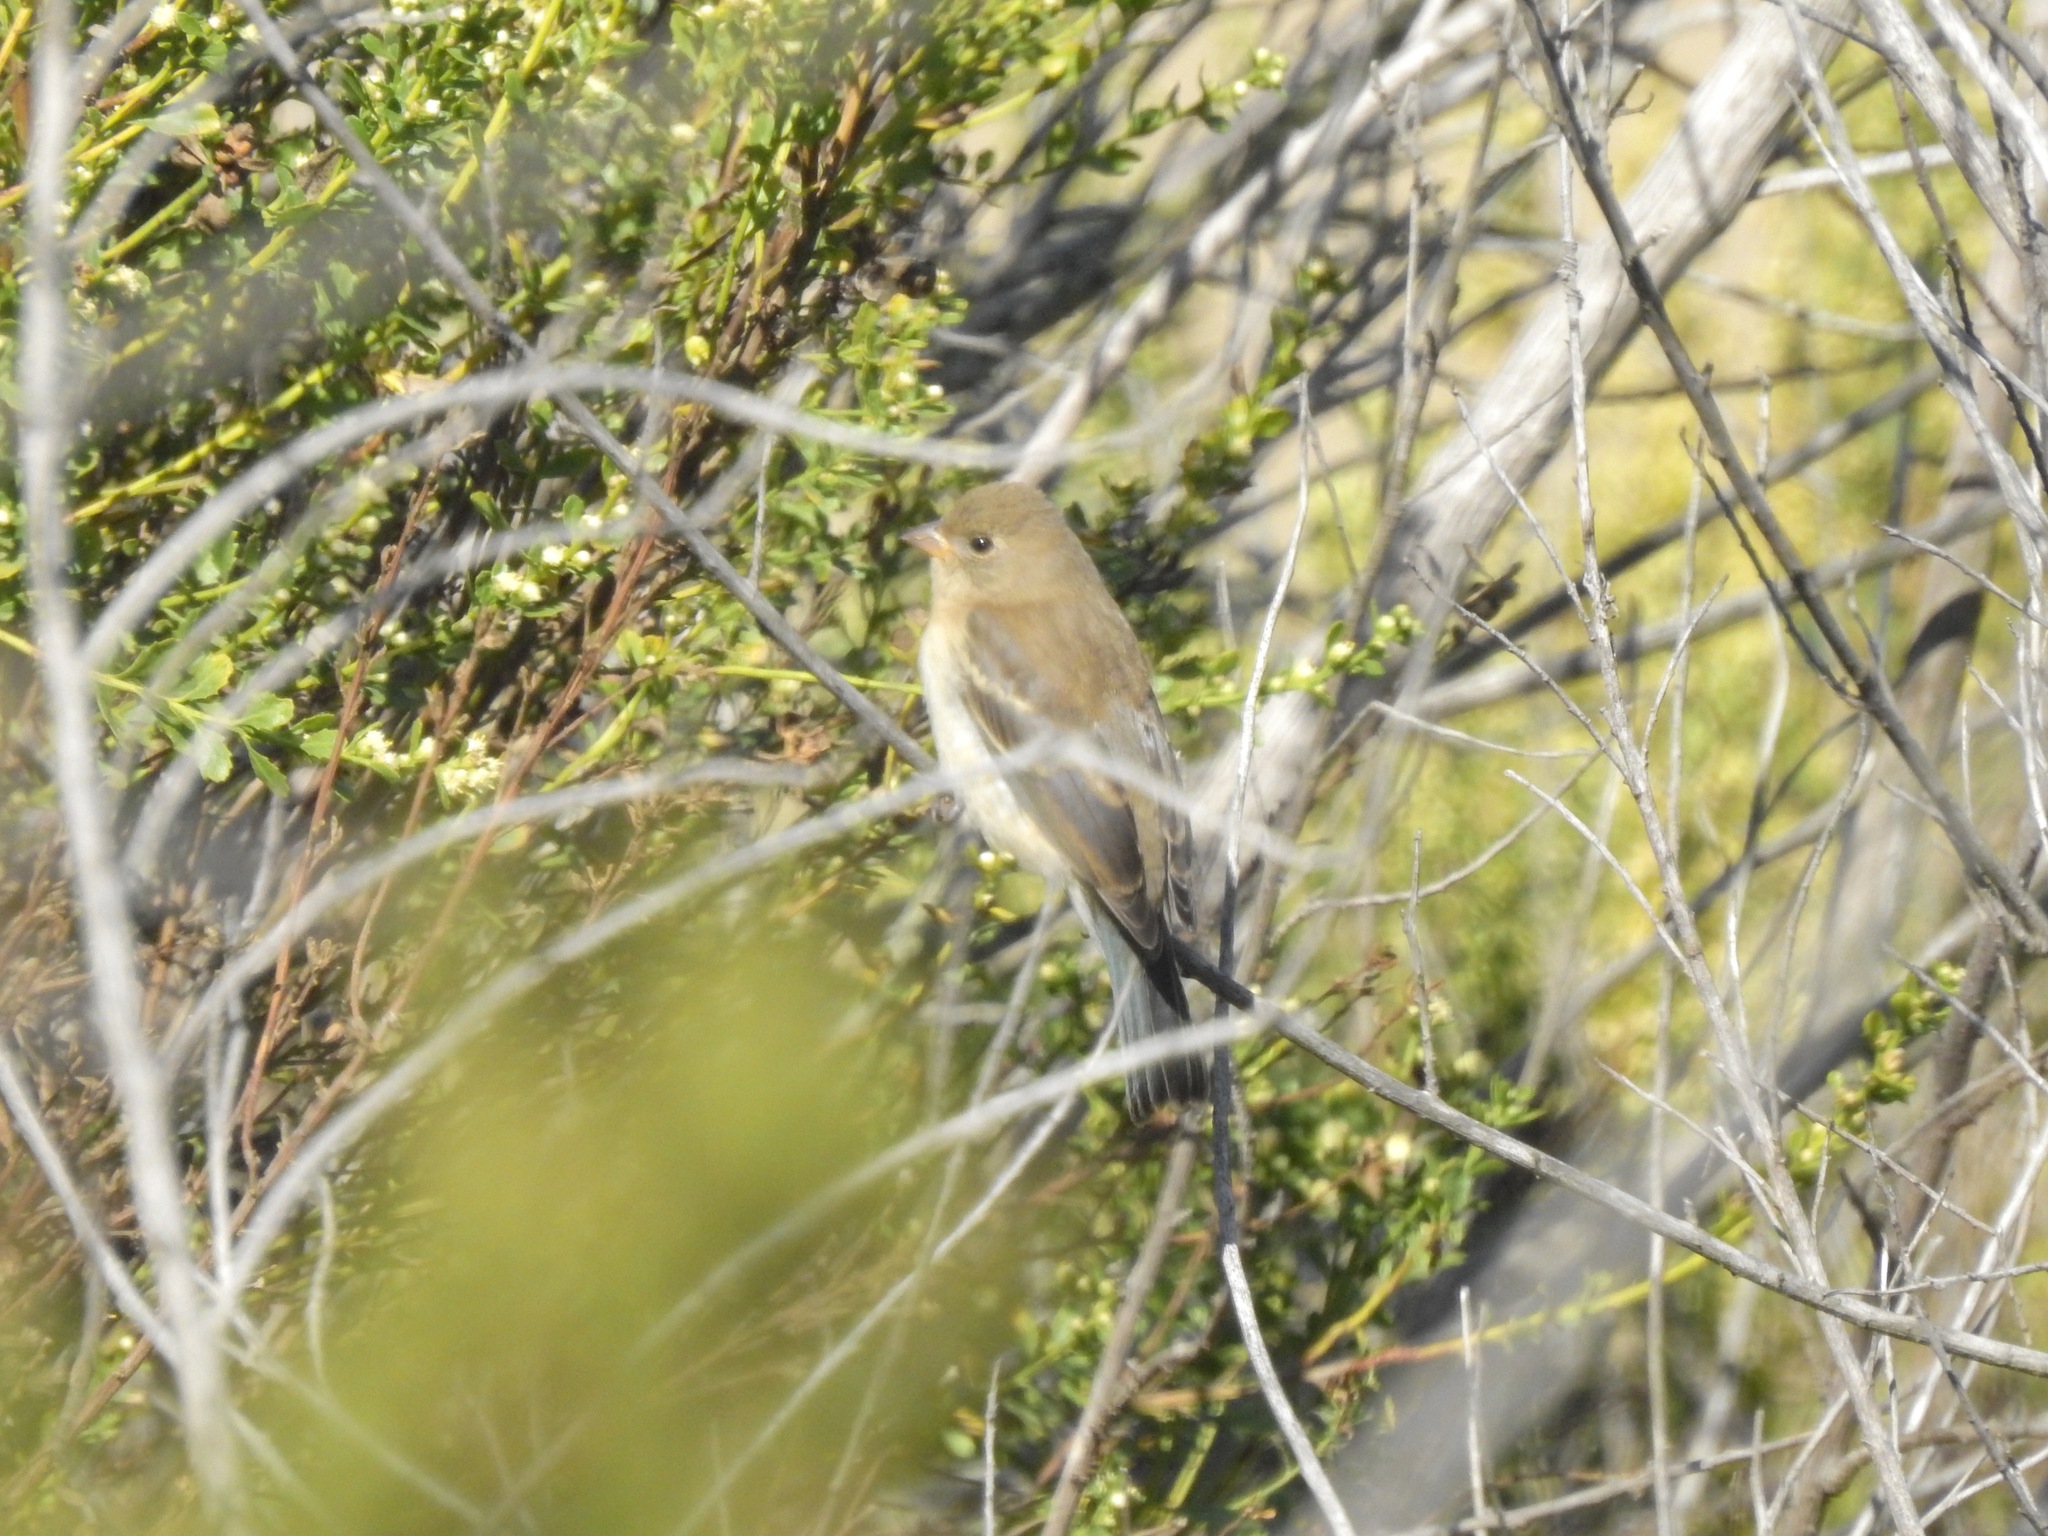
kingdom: Animalia
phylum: Chordata
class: Aves
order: Passeriformes
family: Cardinalidae
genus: Passerina
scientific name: Passerina amoena
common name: Lazuli bunting
